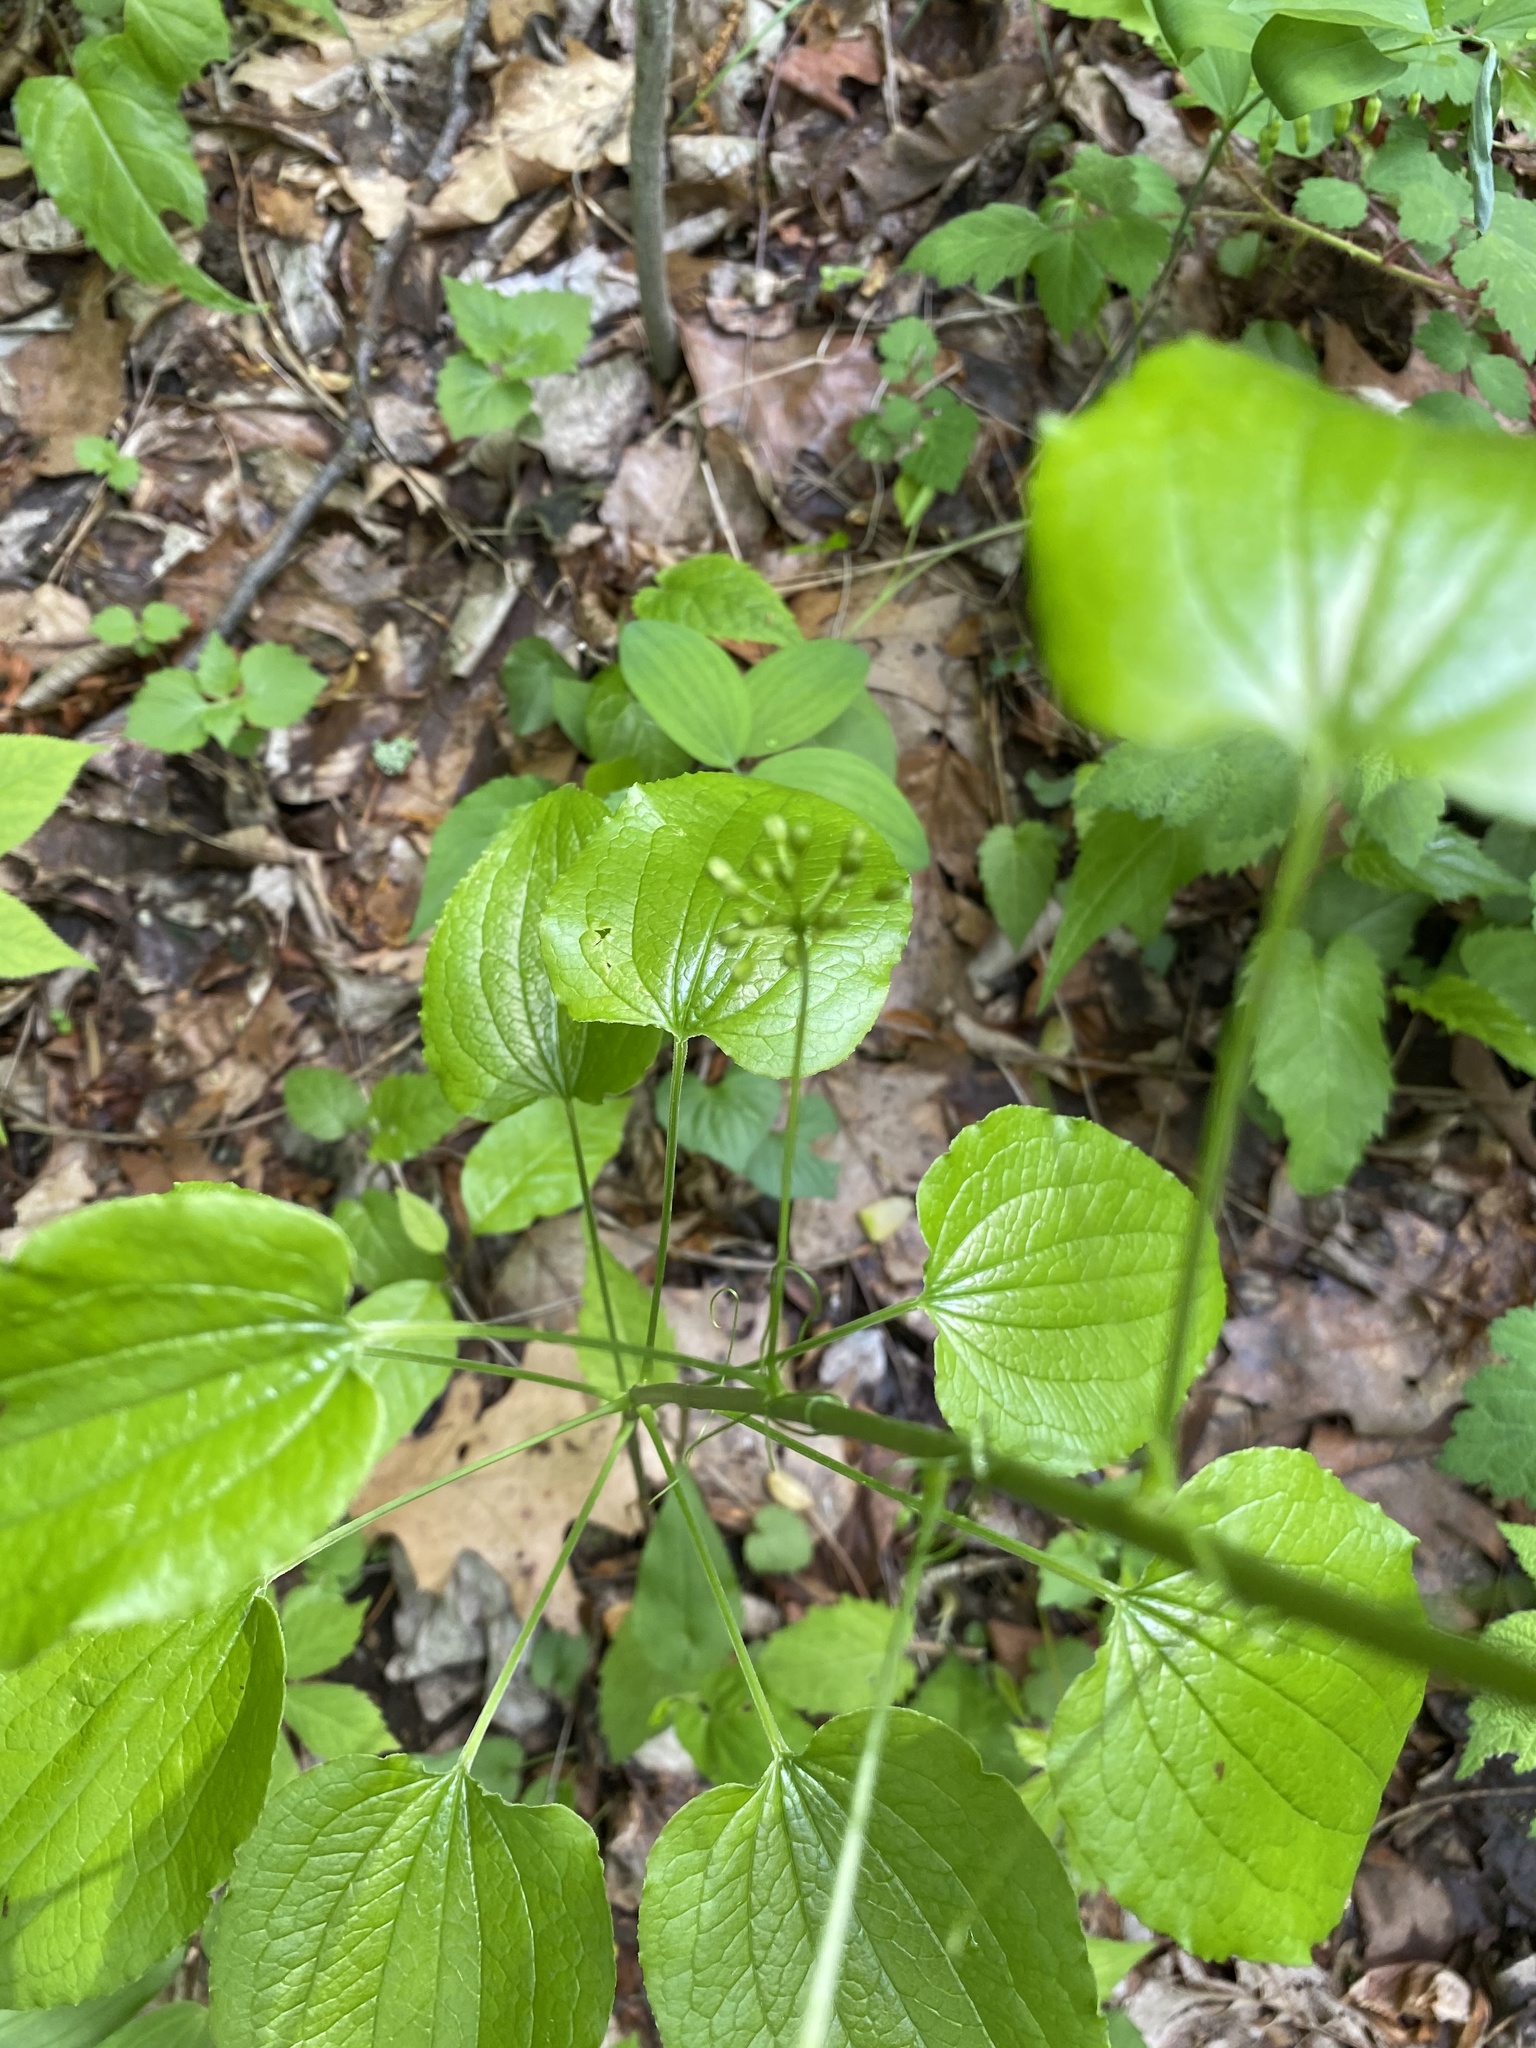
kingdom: Plantae
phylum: Tracheophyta
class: Liliopsida
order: Liliales
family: Smilacaceae
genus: Smilax
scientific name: Smilax pulverulenta
